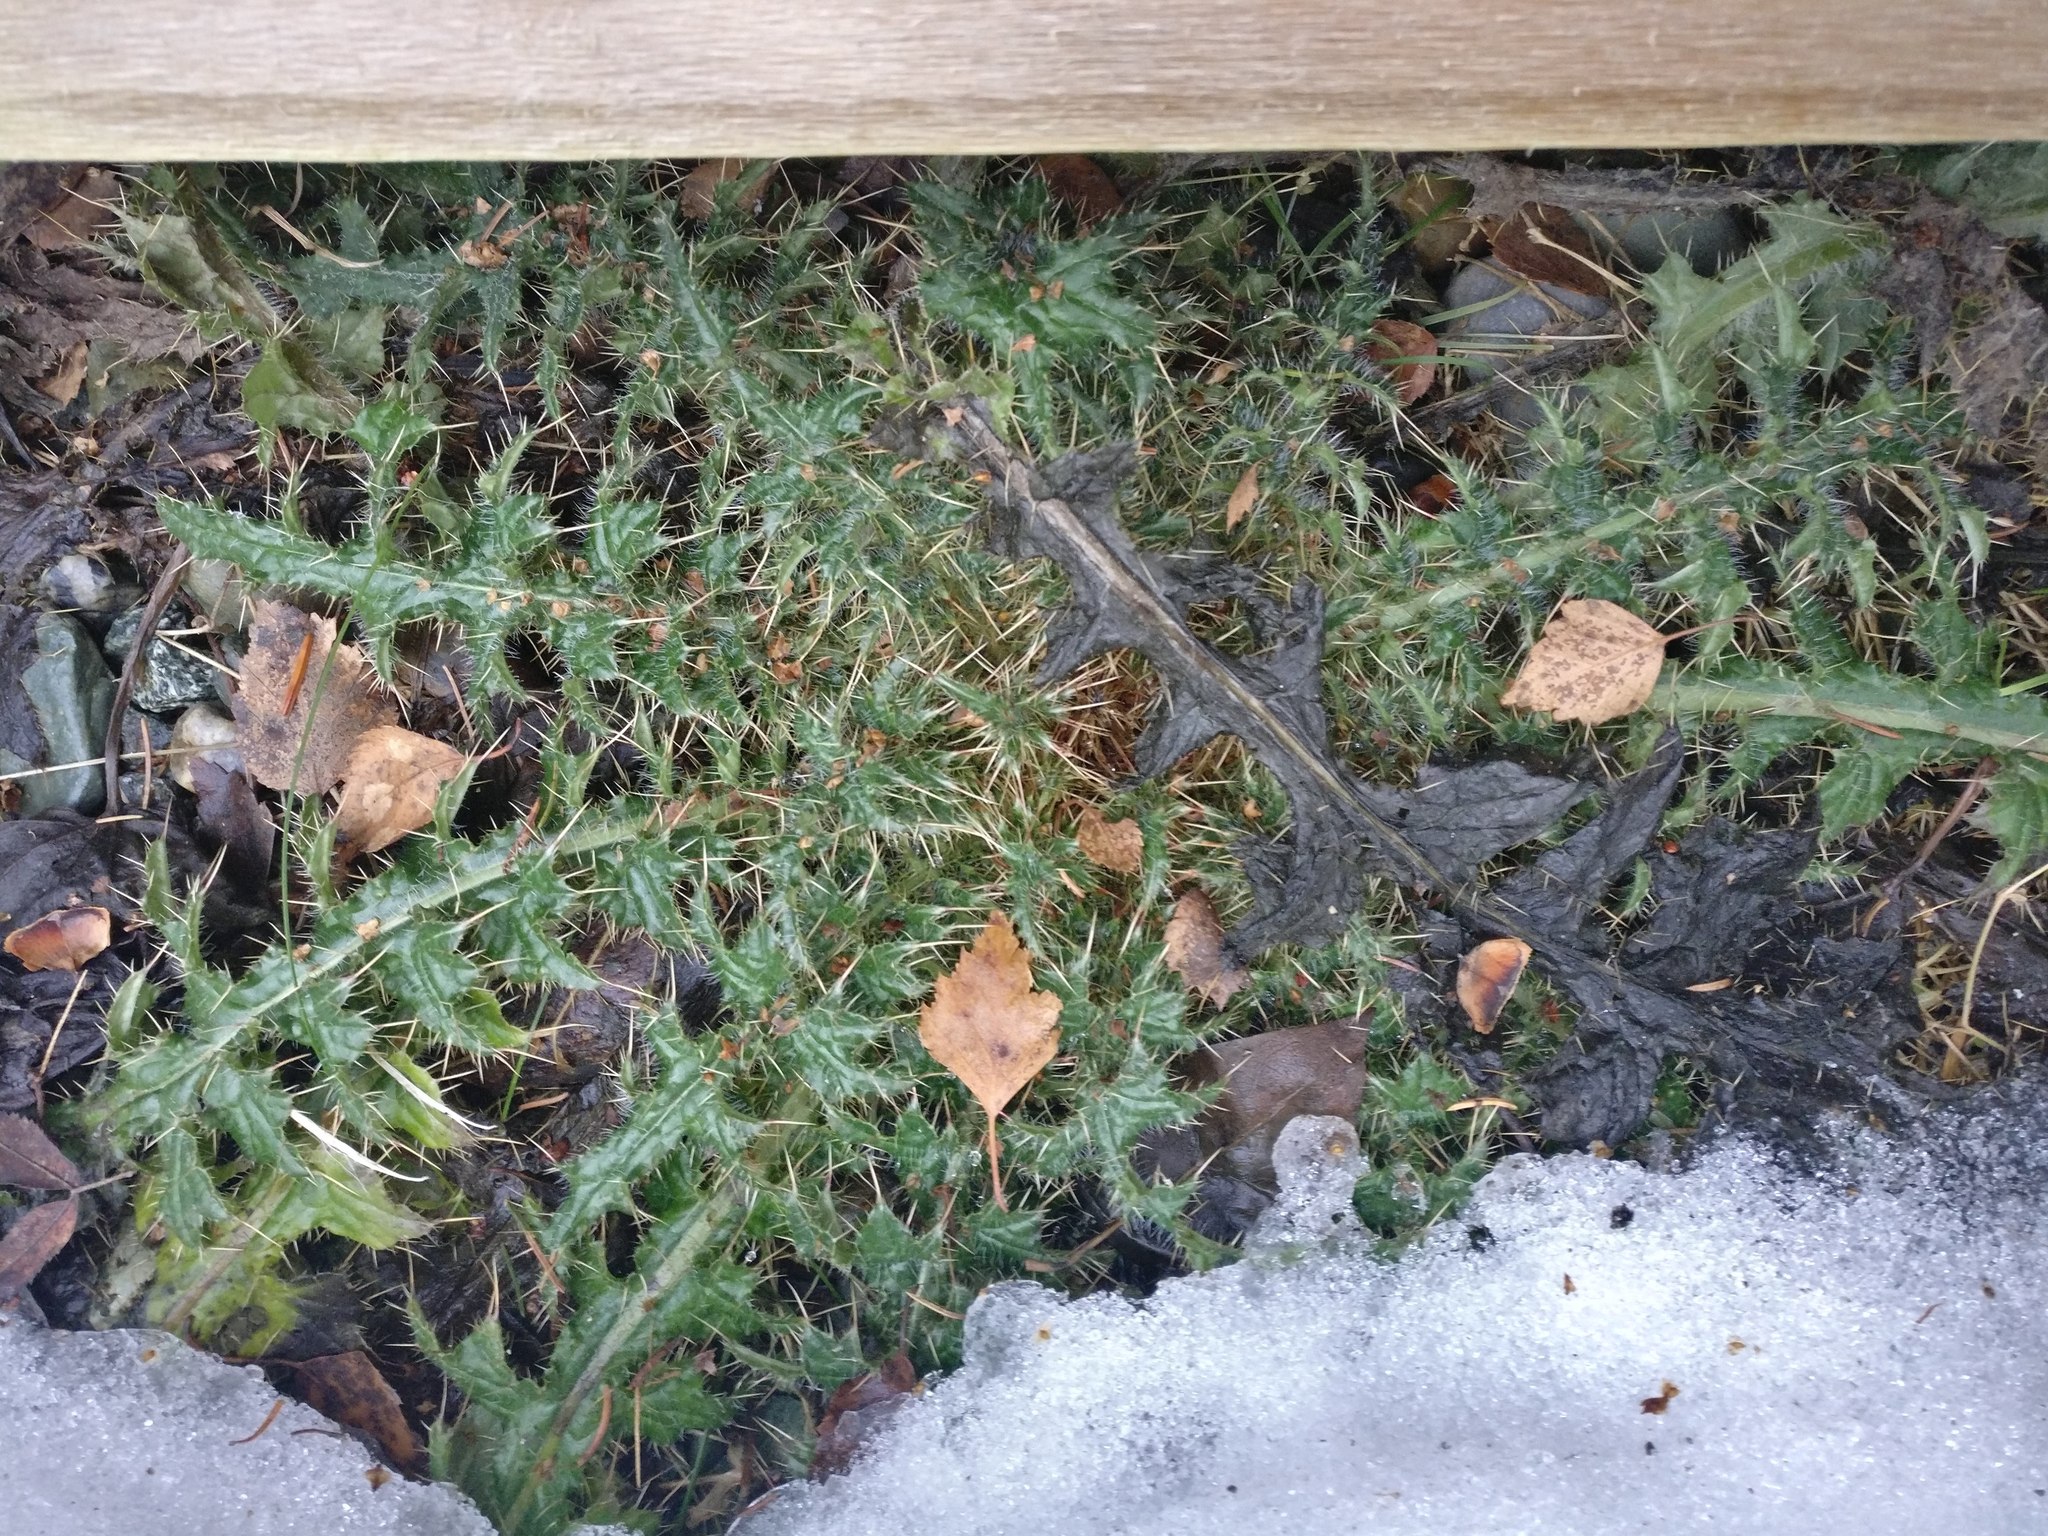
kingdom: Plantae
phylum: Tracheophyta
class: Magnoliopsida
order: Asterales
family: Asteraceae
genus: Cirsium
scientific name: Cirsium vulgare
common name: Bull thistle
